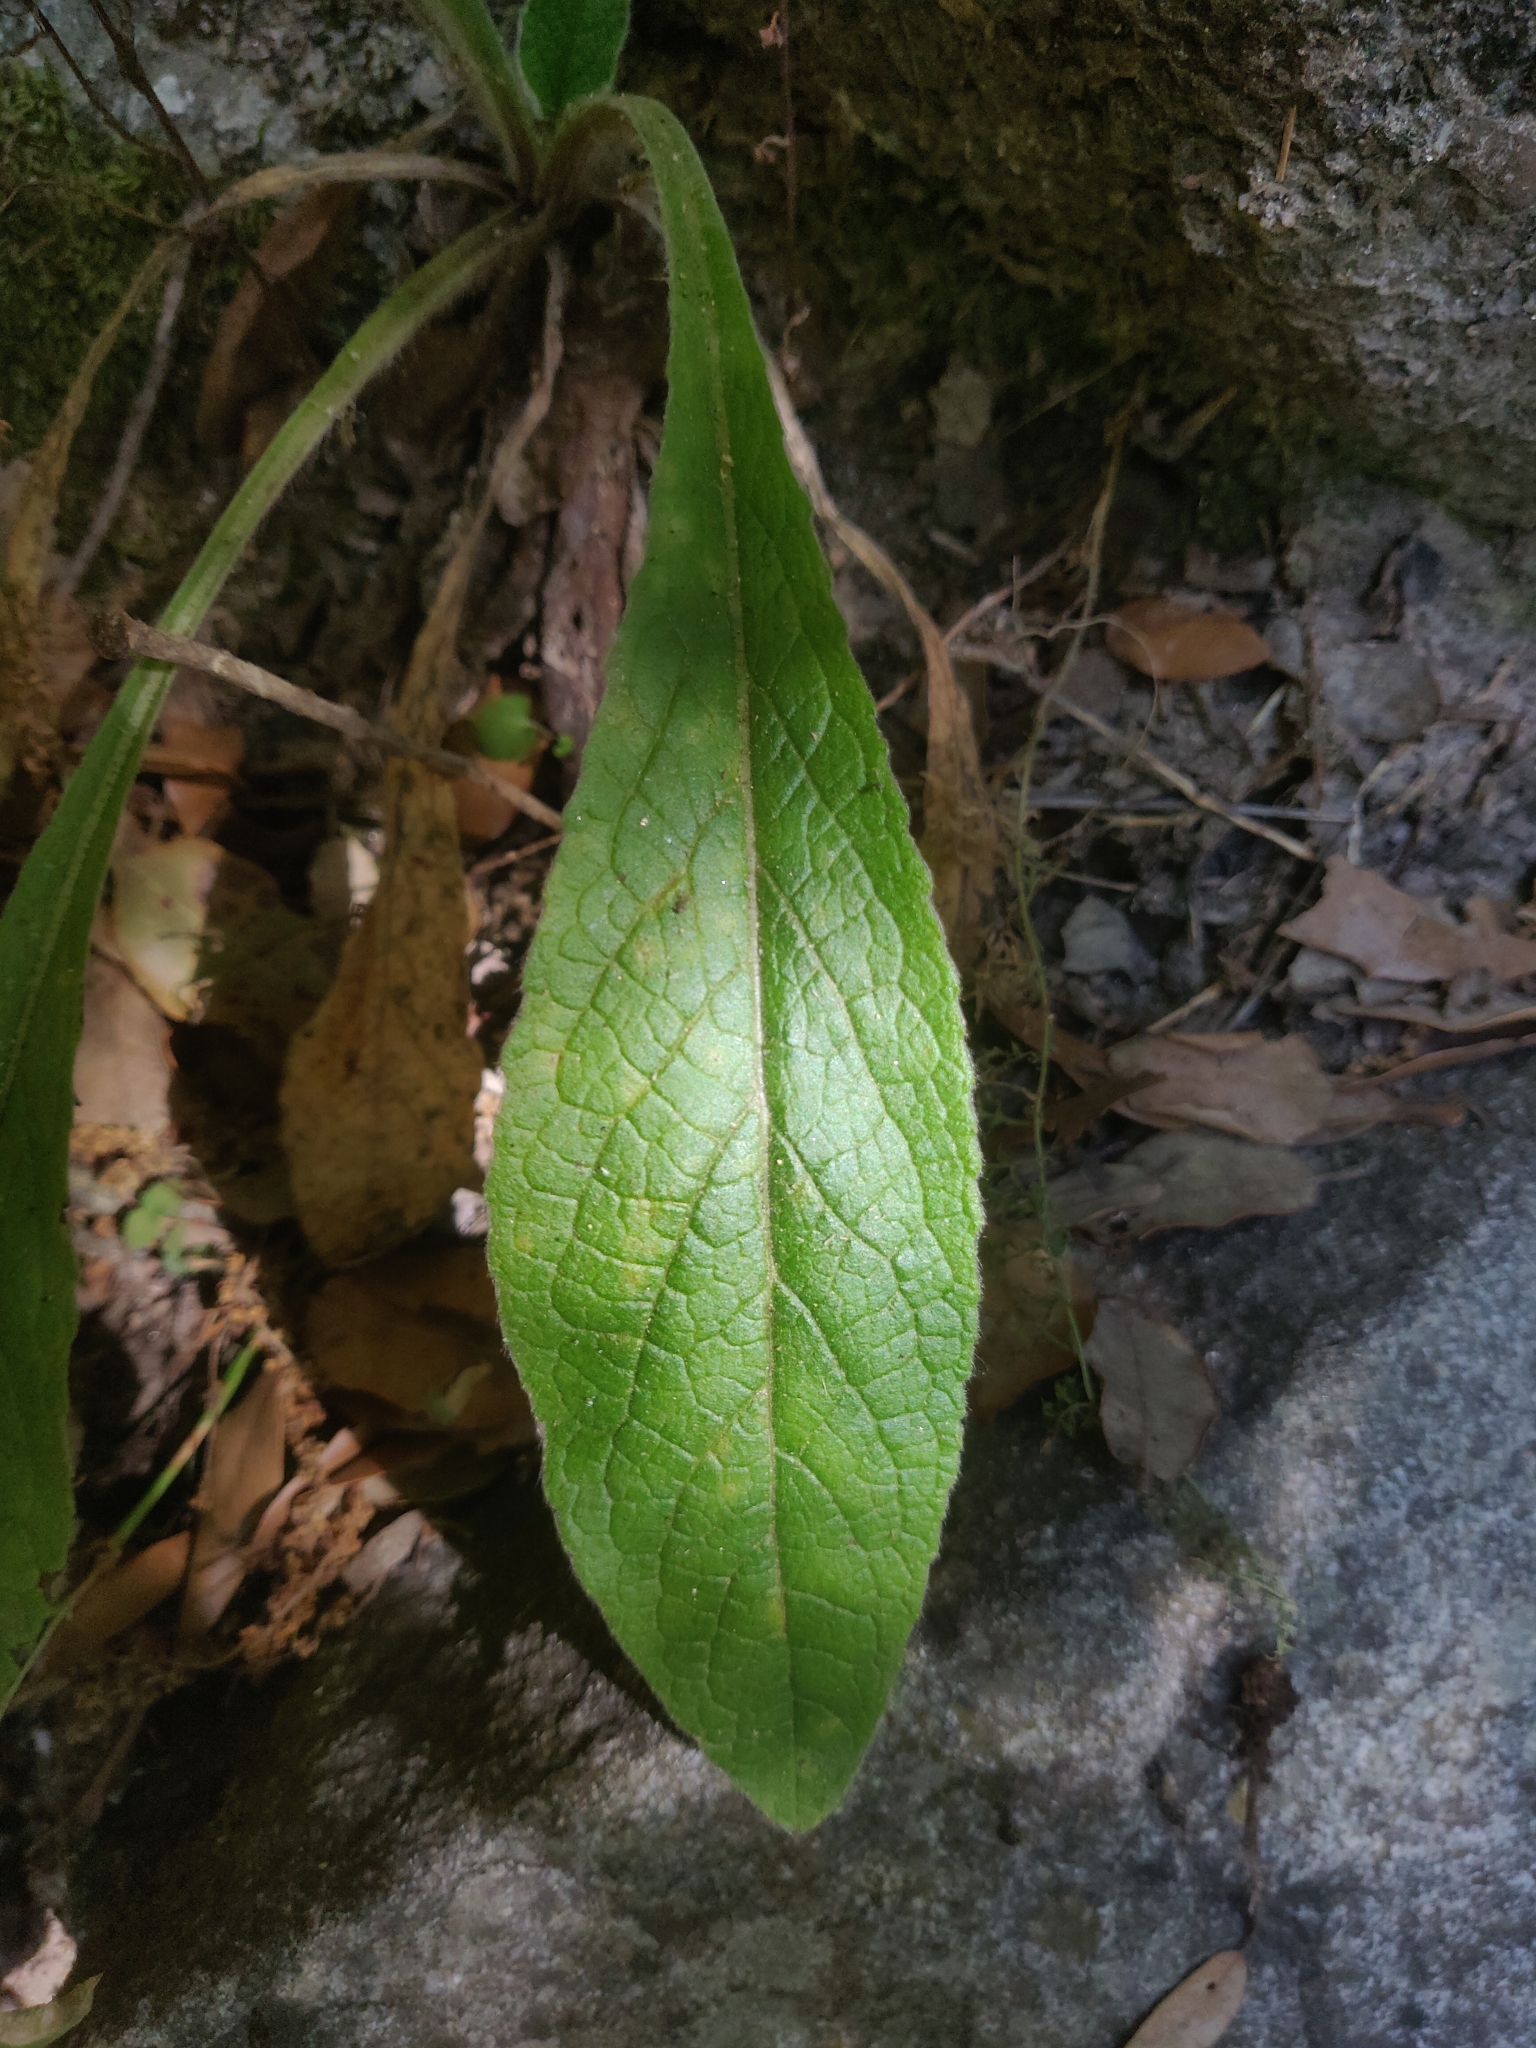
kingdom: Plantae
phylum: Tracheophyta
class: Magnoliopsida
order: Asterales
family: Asteraceae
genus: Pentanema
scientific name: Pentanema squarrosum
